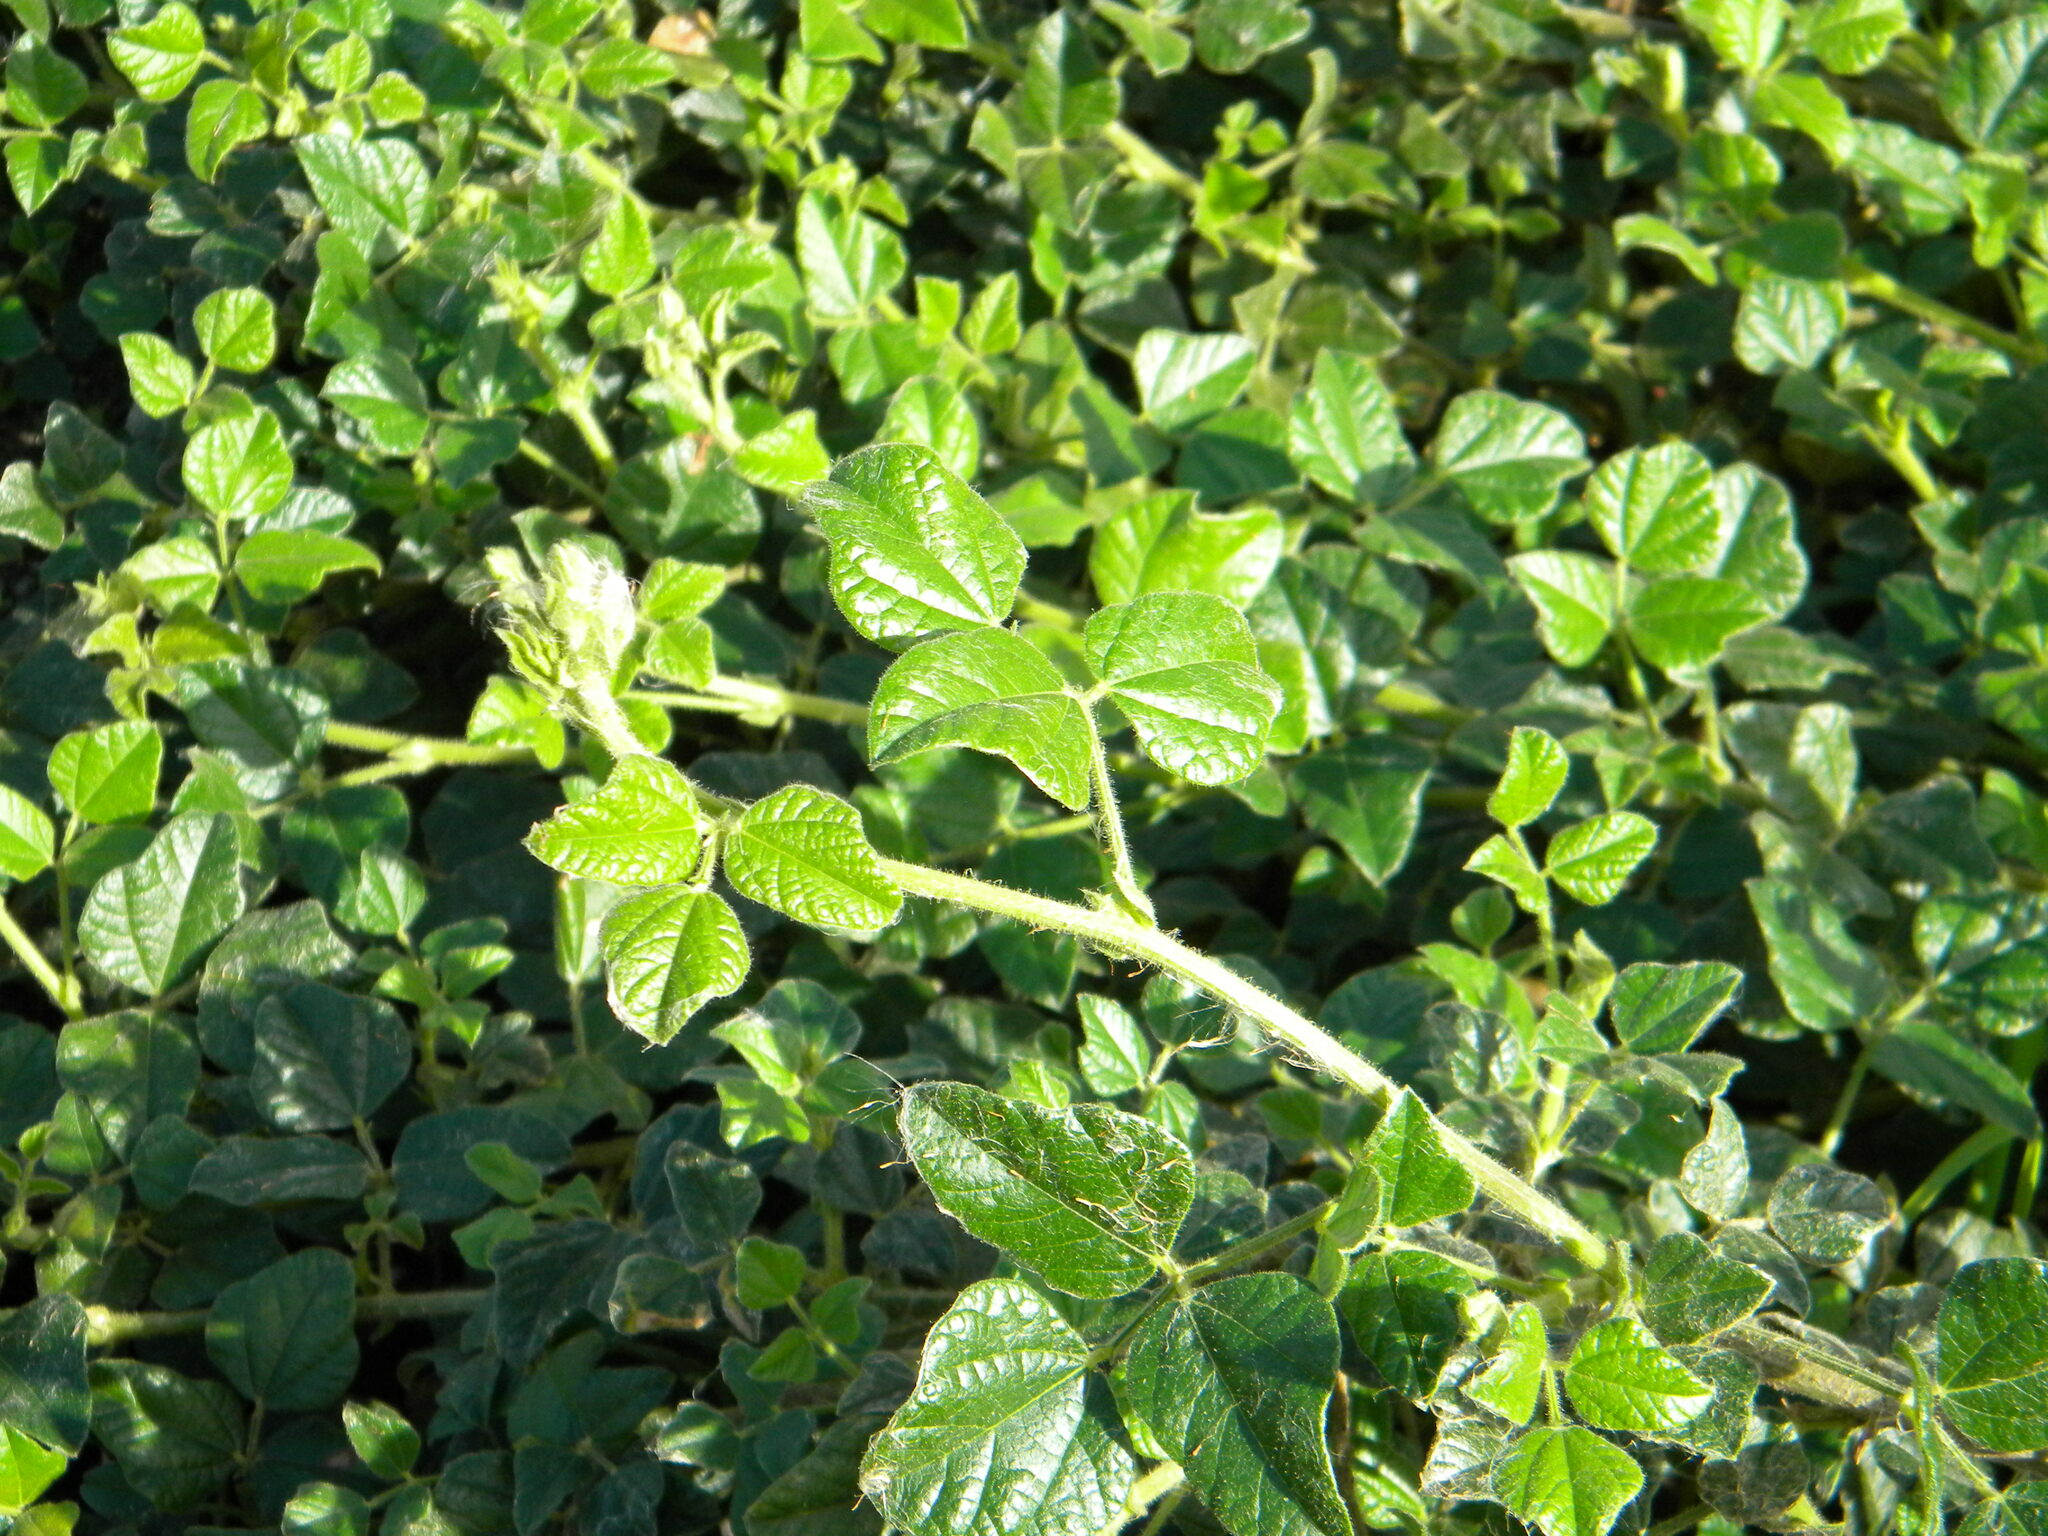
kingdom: Plantae
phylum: Tracheophyta
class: Magnoliopsida
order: Fabales
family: Fabaceae
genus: Bolusafra
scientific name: Bolusafra bituminosa
